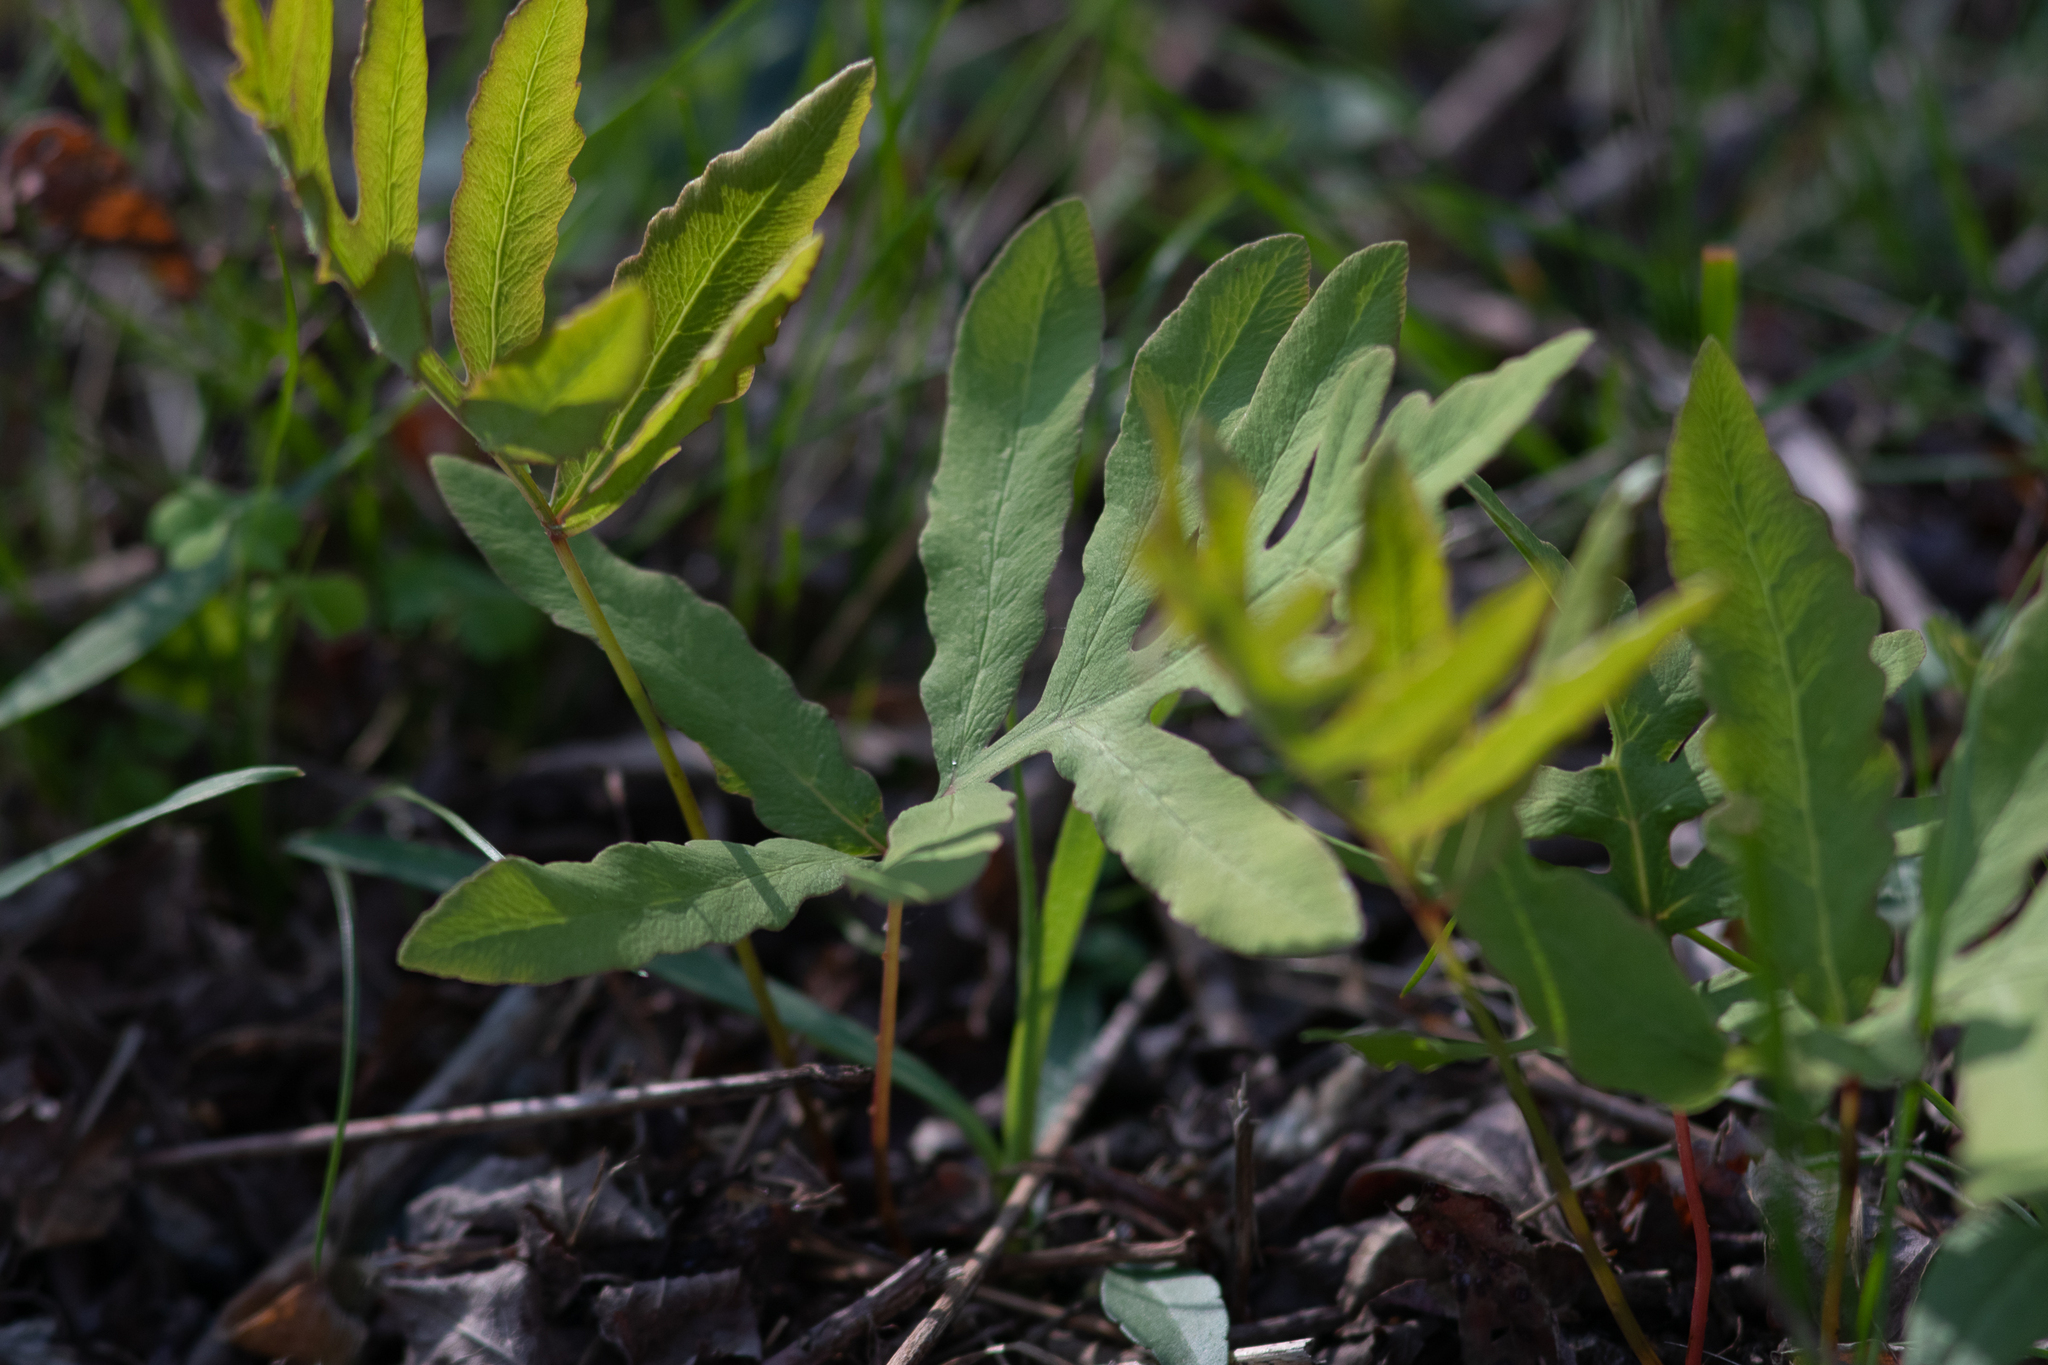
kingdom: Plantae
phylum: Tracheophyta
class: Polypodiopsida
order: Polypodiales
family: Onocleaceae
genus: Onoclea
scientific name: Onoclea sensibilis
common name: Sensitive fern
